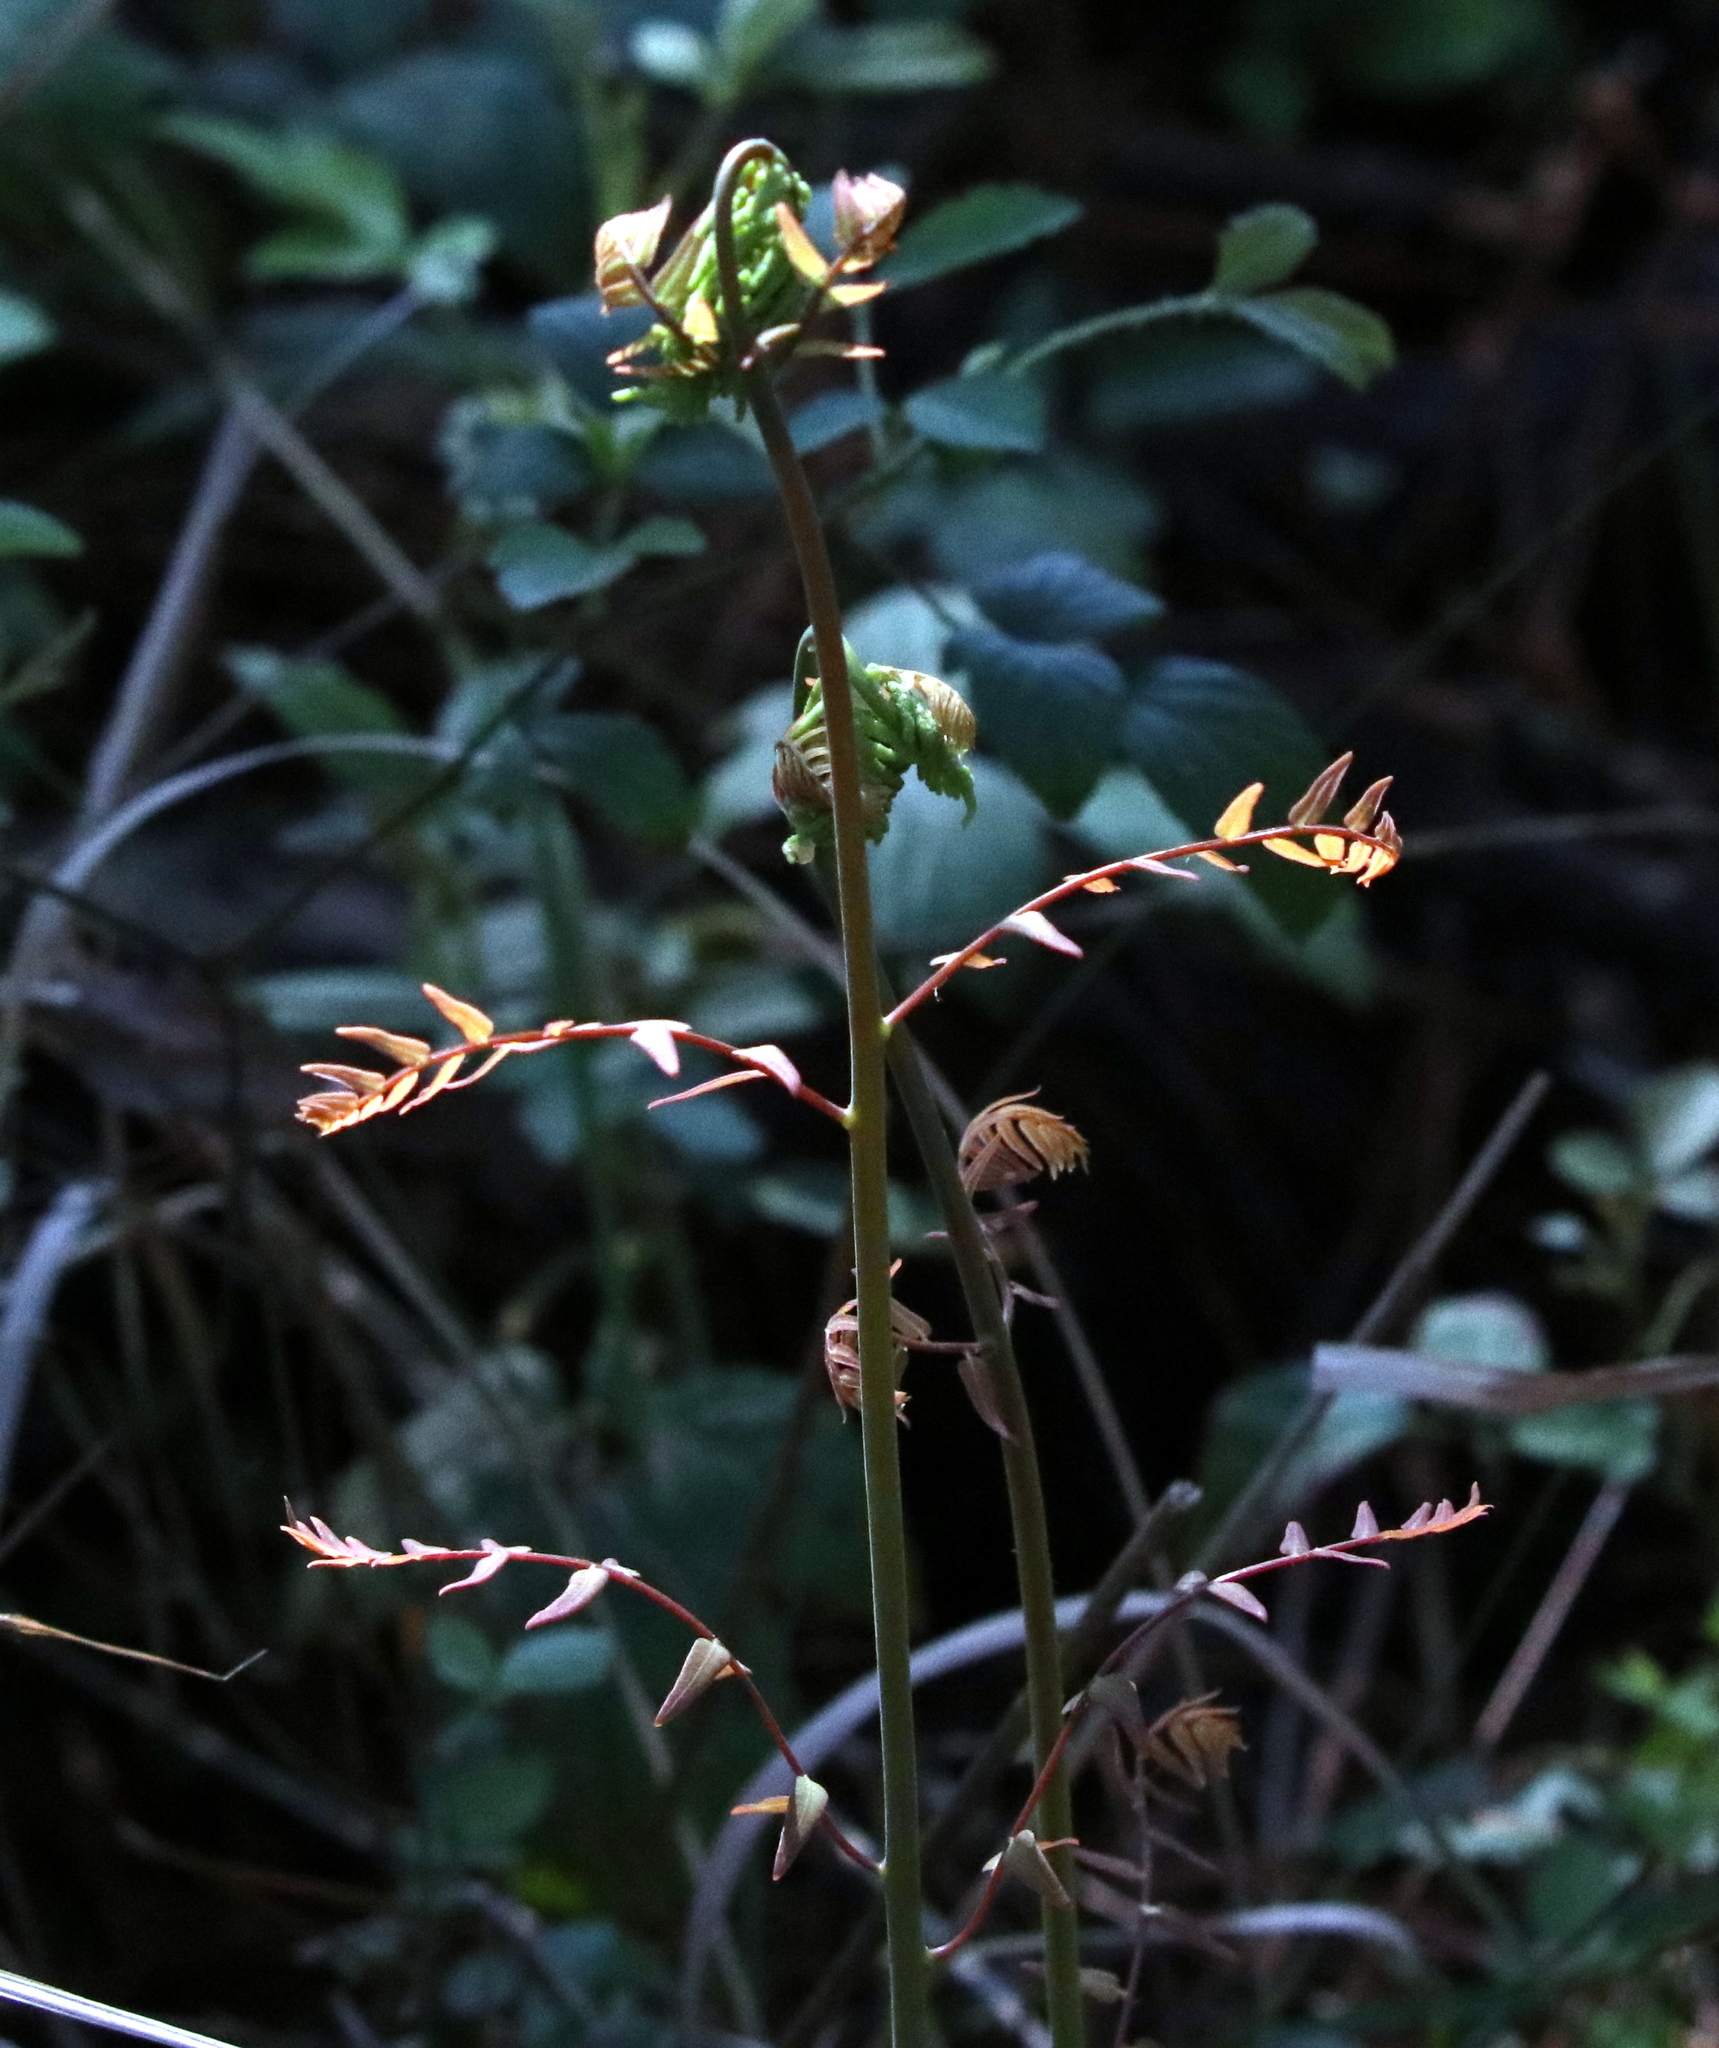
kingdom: Plantae
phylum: Tracheophyta
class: Polypodiopsida
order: Osmundales
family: Osmundaceae
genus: Osmunda
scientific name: Osmunda spectabilis
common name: American royal fern
